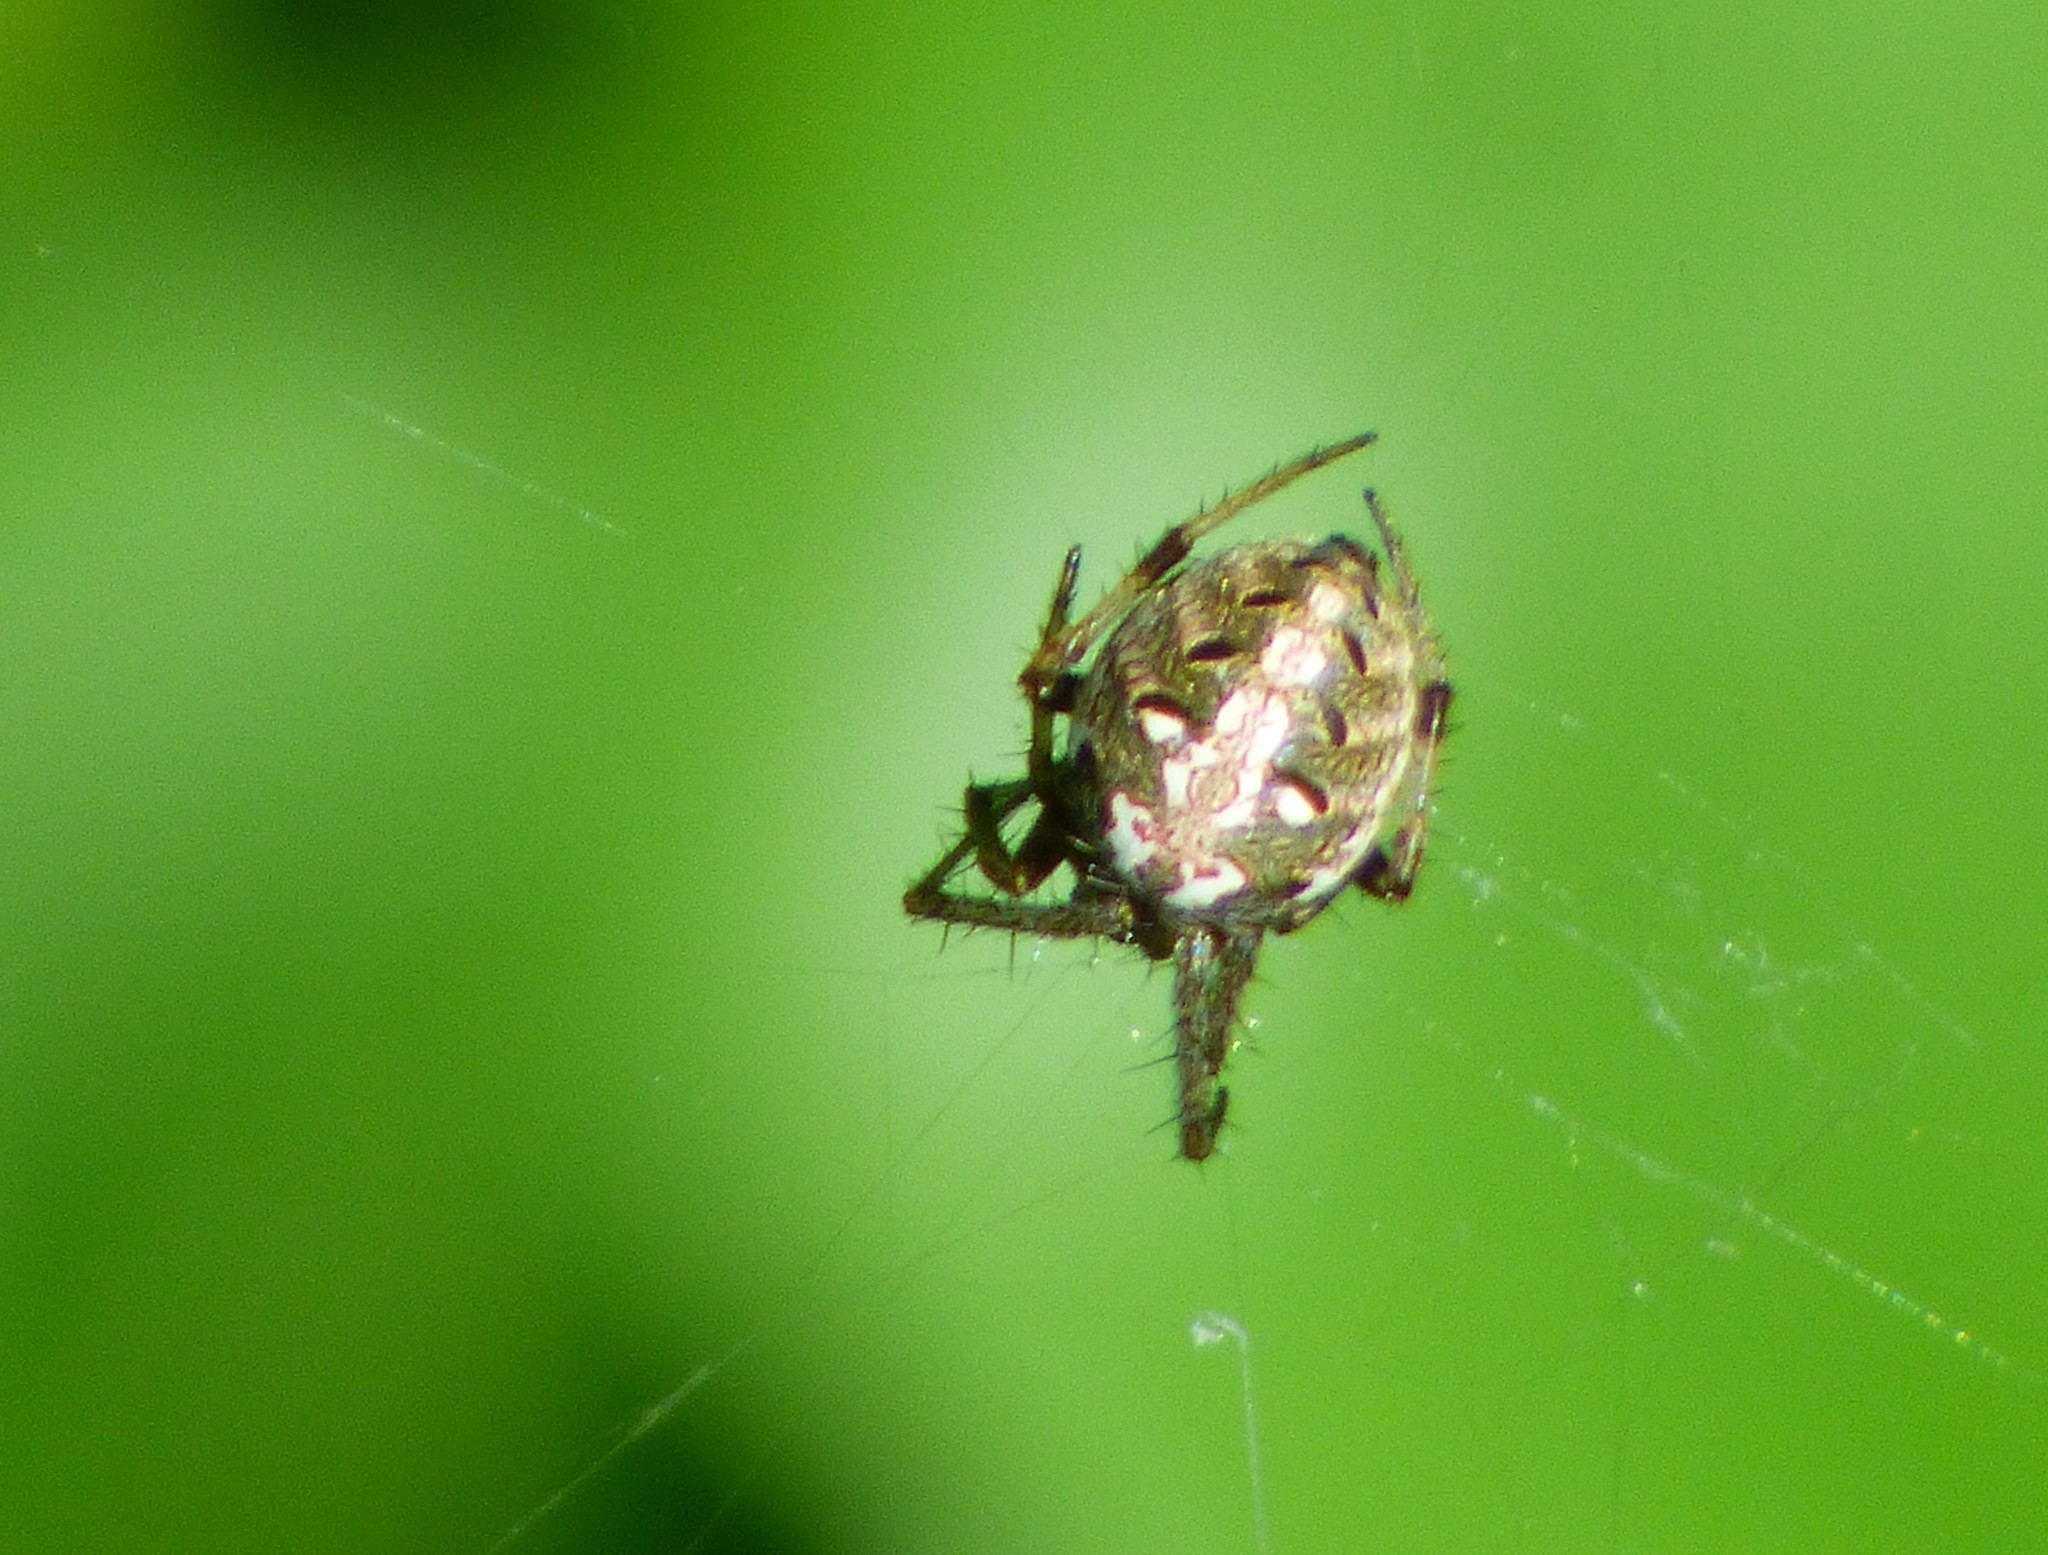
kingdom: Animalia
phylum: Arthropoda
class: Arachnida
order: Araneae
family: Araneidae
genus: Neoscona
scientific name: Neoscona arabesca
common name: Orb weavers
